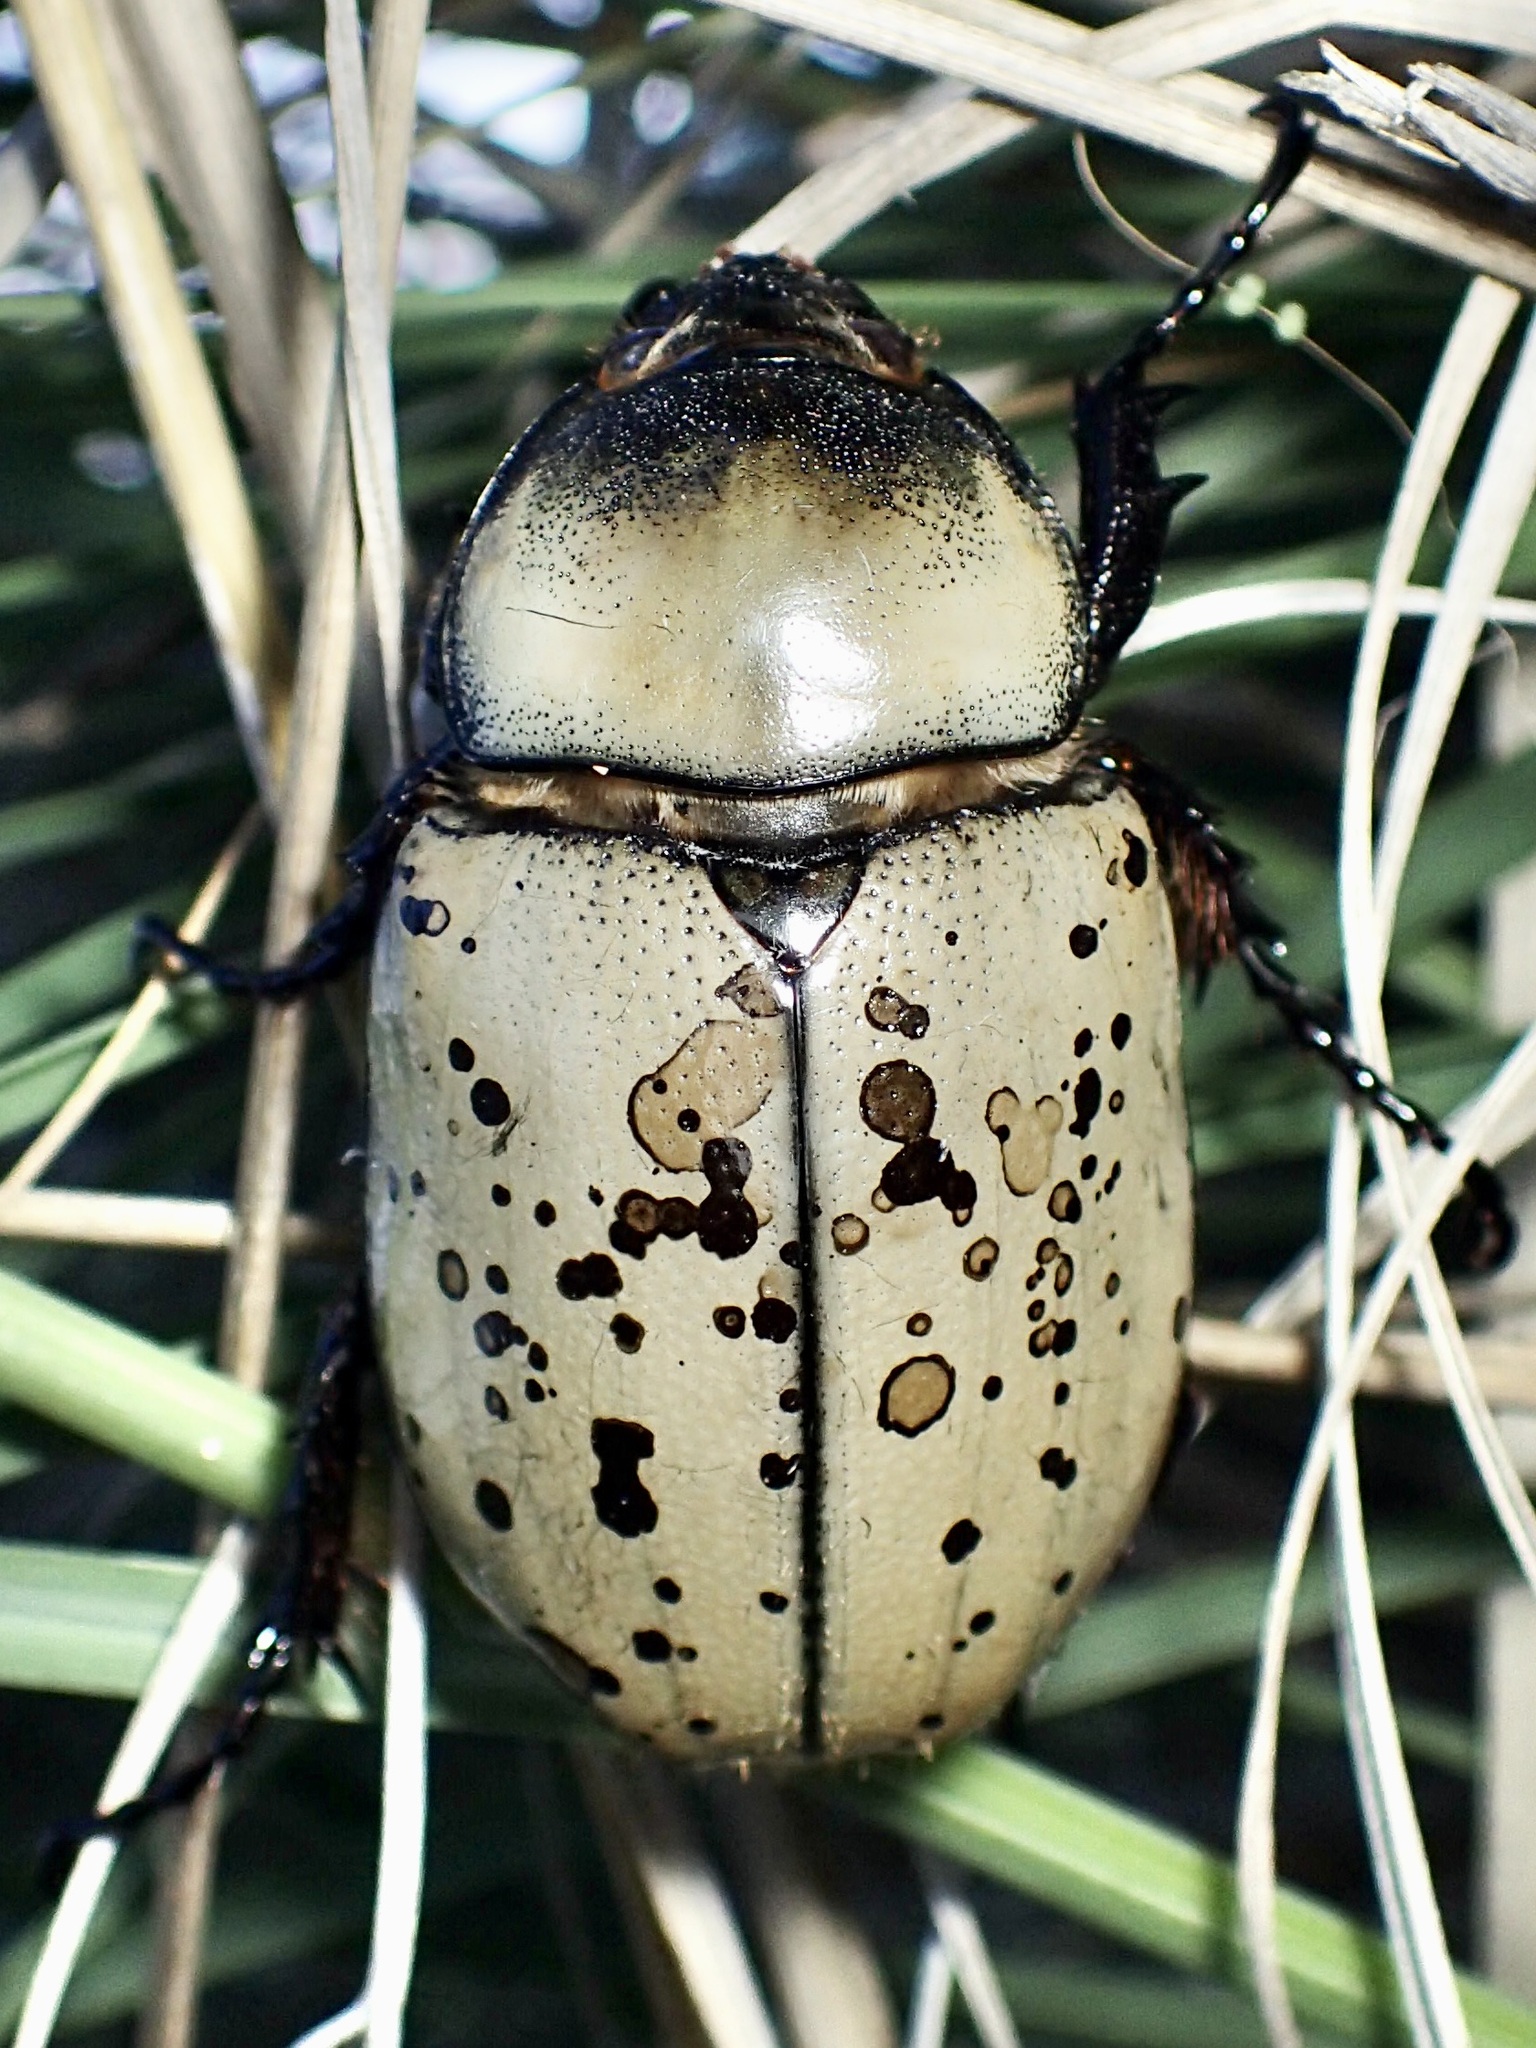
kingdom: Animalia
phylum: Arthropoda
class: Insecta
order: Coleoptera
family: Scarabaeidae
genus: Dynastes
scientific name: Dynastes grantii
